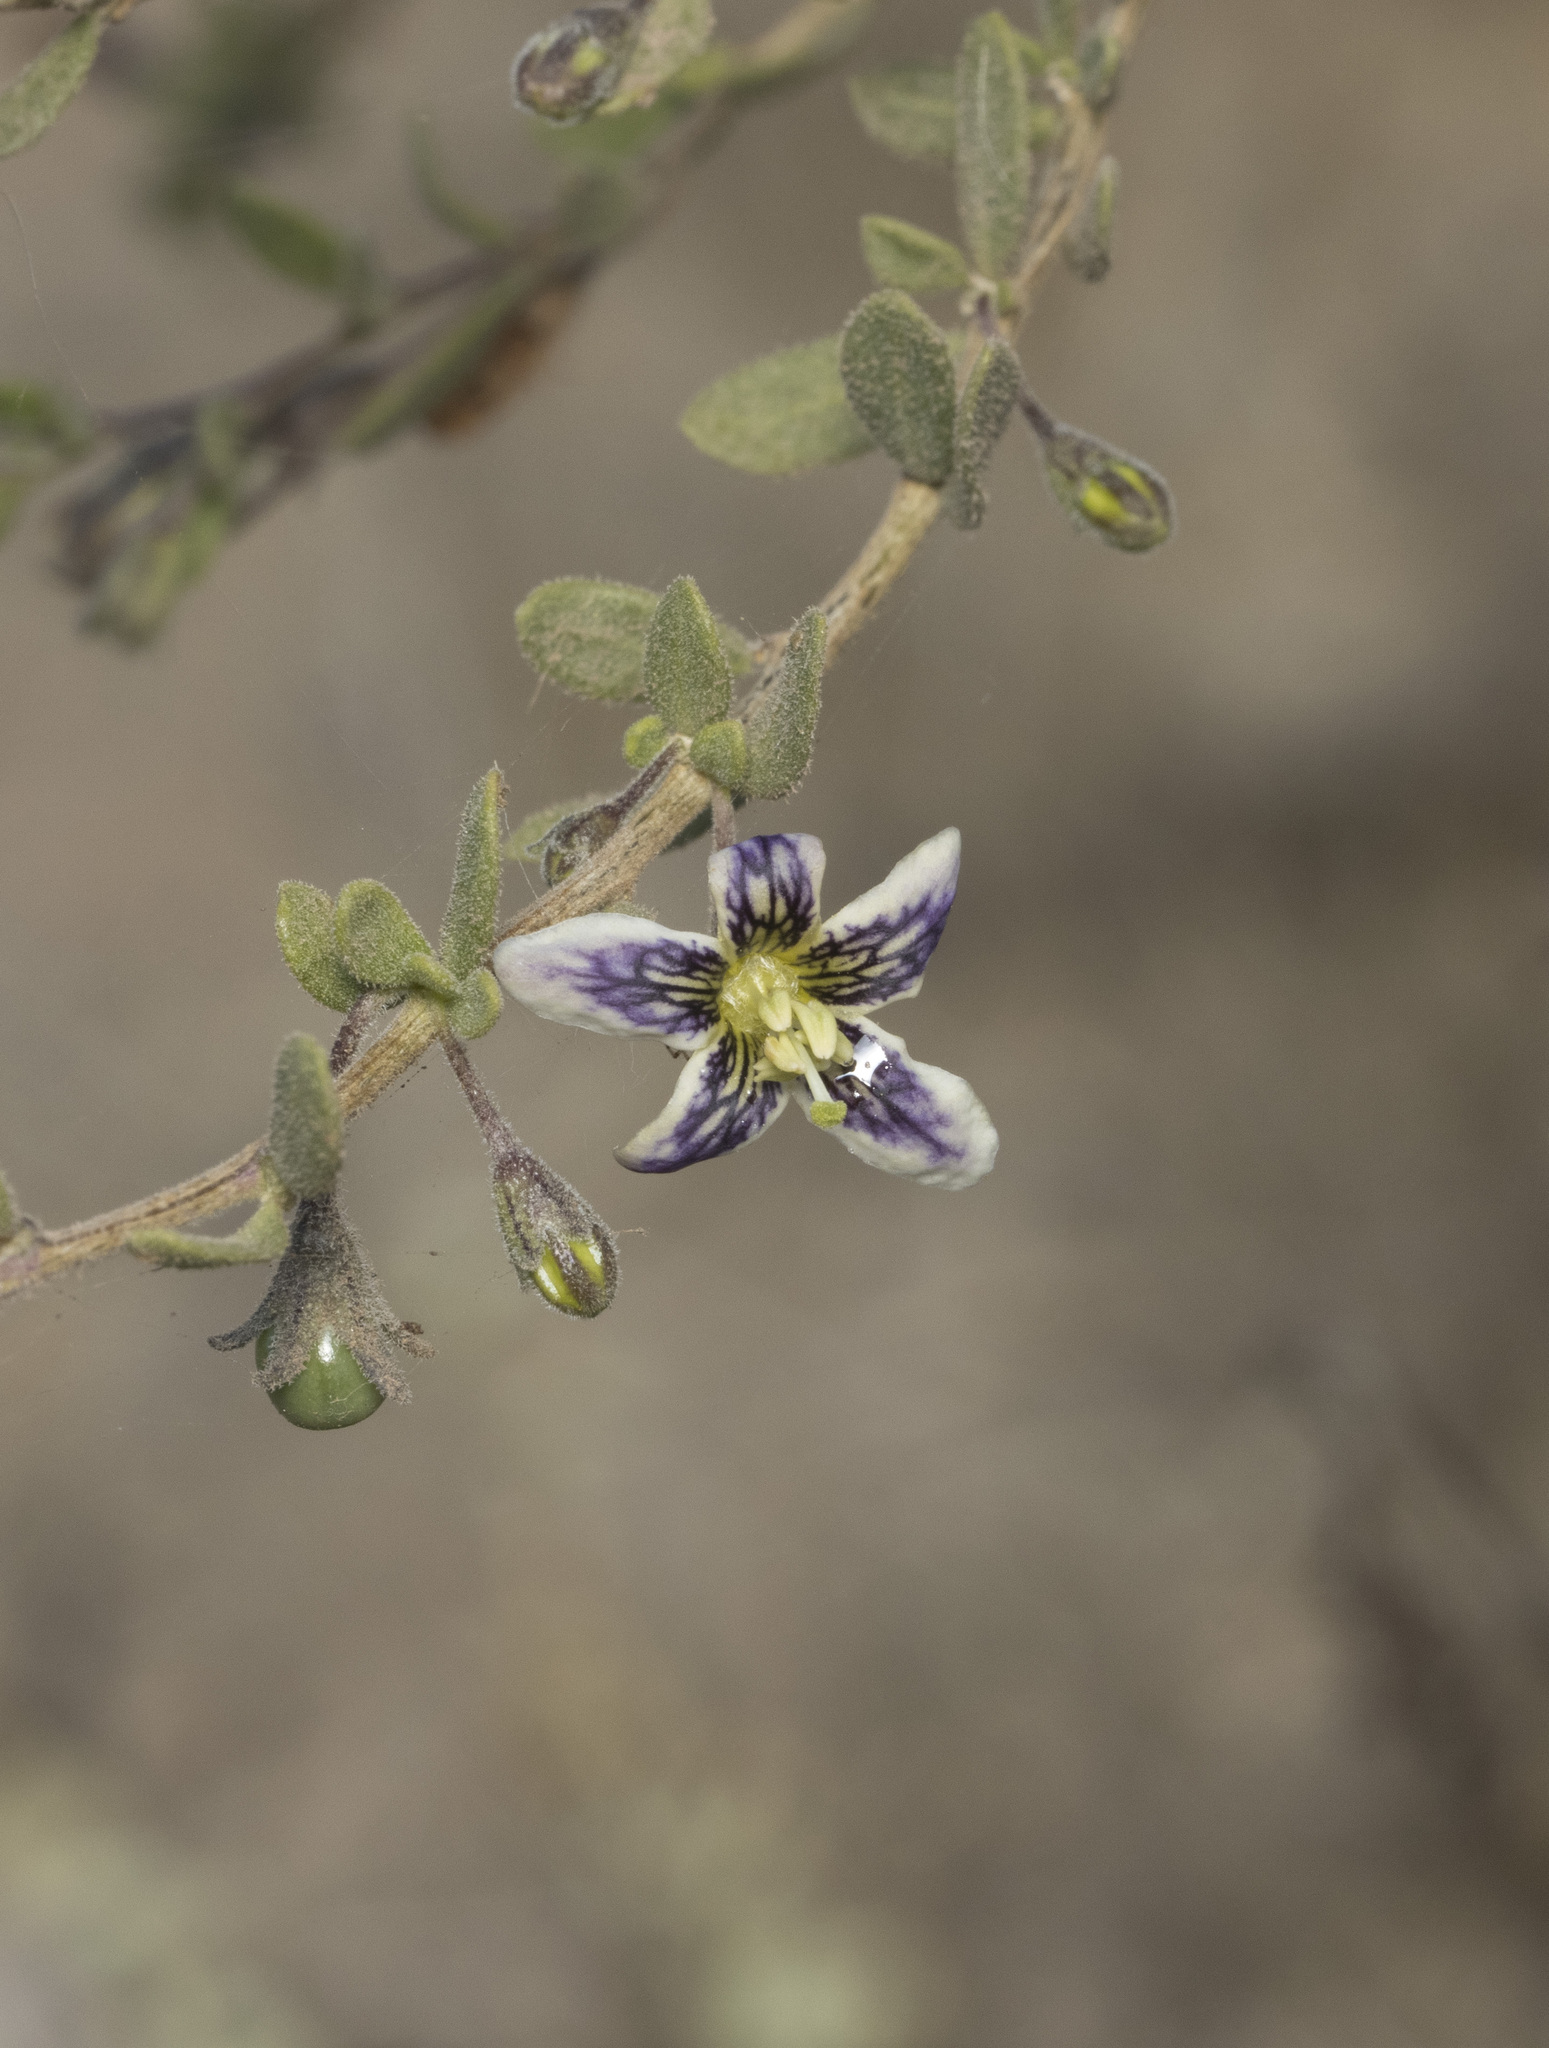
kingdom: Plantae
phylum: Tracheophyta
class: Magnoliopsida
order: Solanales
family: Solanaceae
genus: Lycium
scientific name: Lycium chilense
